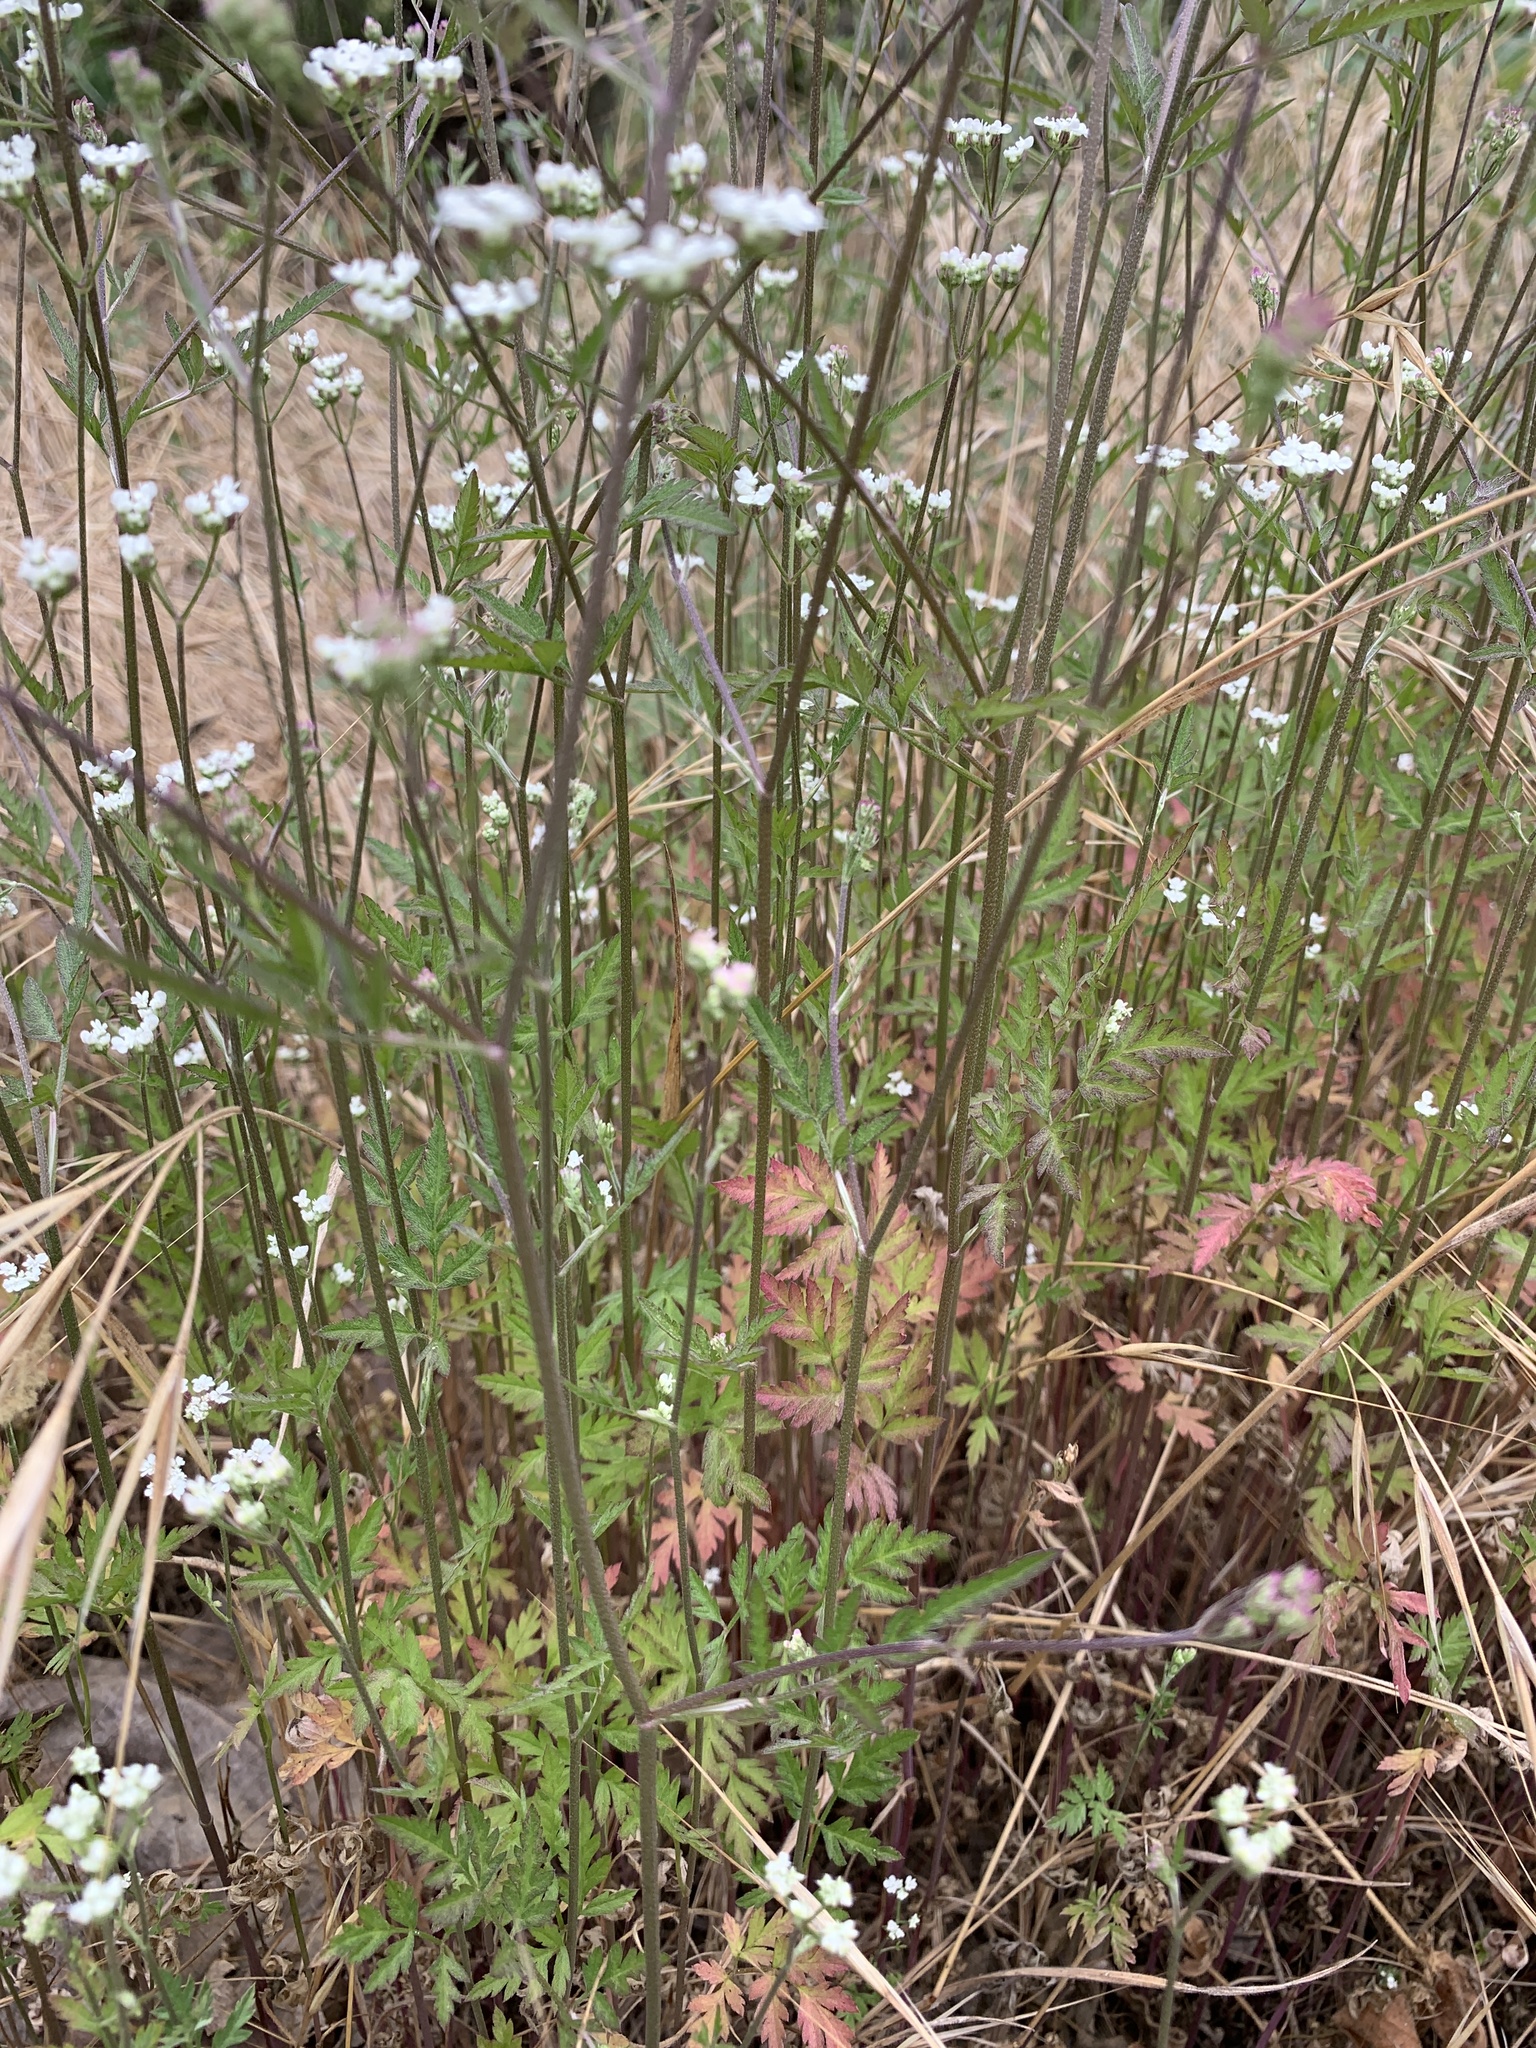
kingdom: Plantae
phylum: Tracheophyta
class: Magnoliopsida
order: Apiales
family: Apiaceae
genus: Torilis
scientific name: Torilis arvensis
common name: Spreading hedge-parsley
